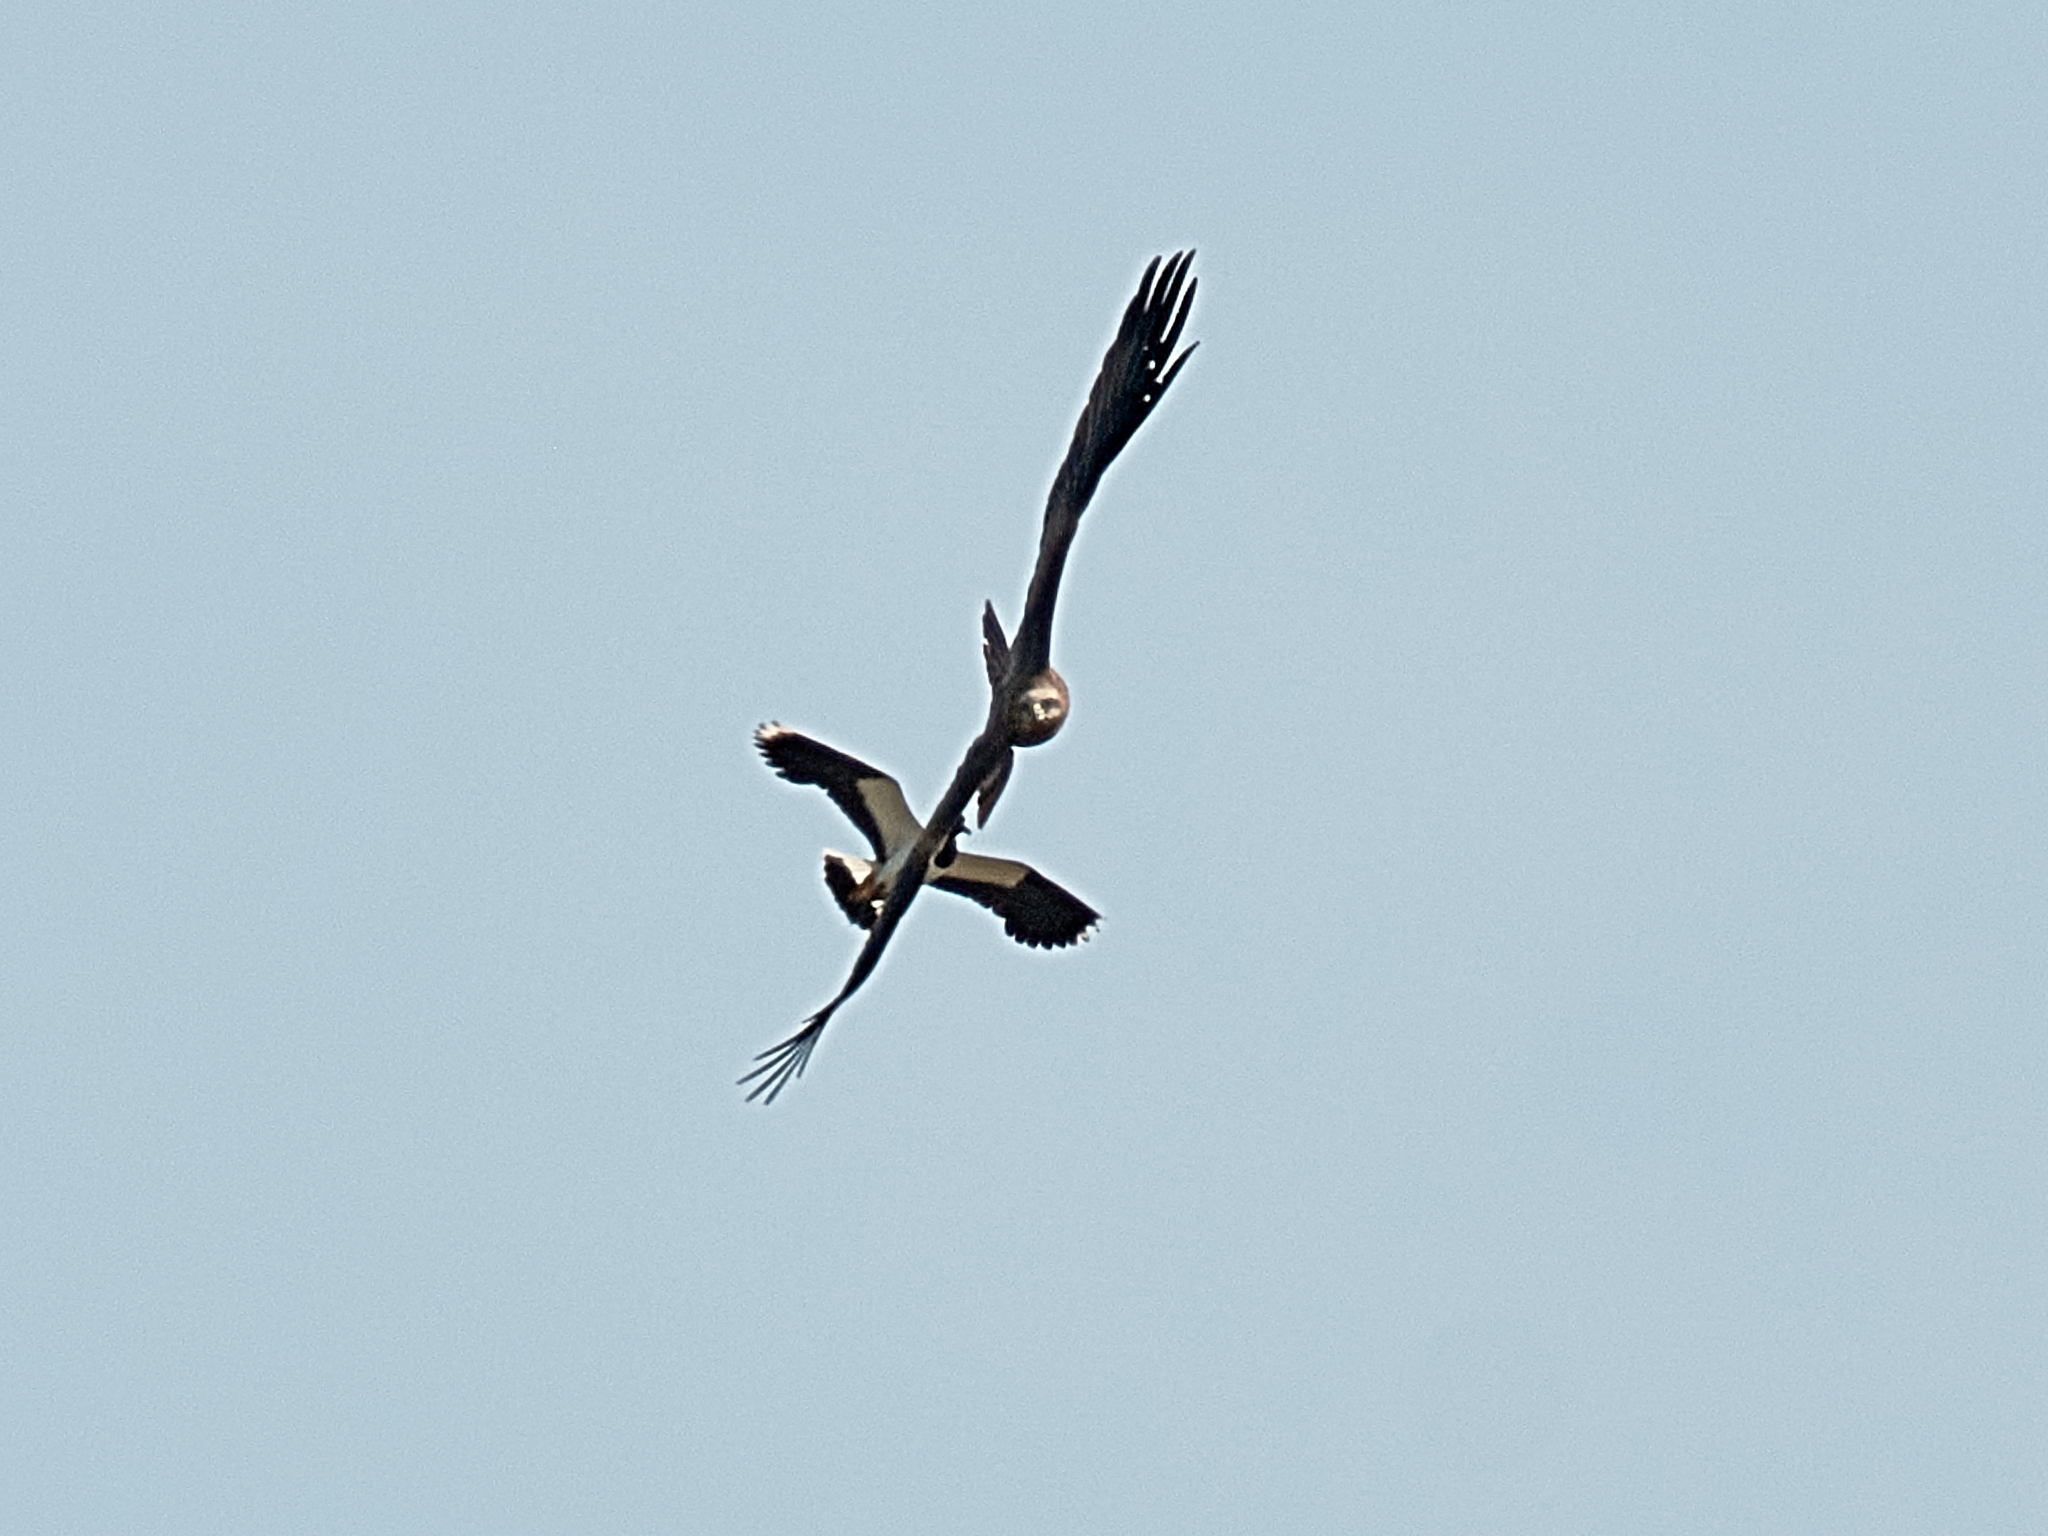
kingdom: Animalia
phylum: Chordata
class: Aves
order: Accipitriformes
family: Accipitridae
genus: Milvus
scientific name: Milvus migrans
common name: Black kite
